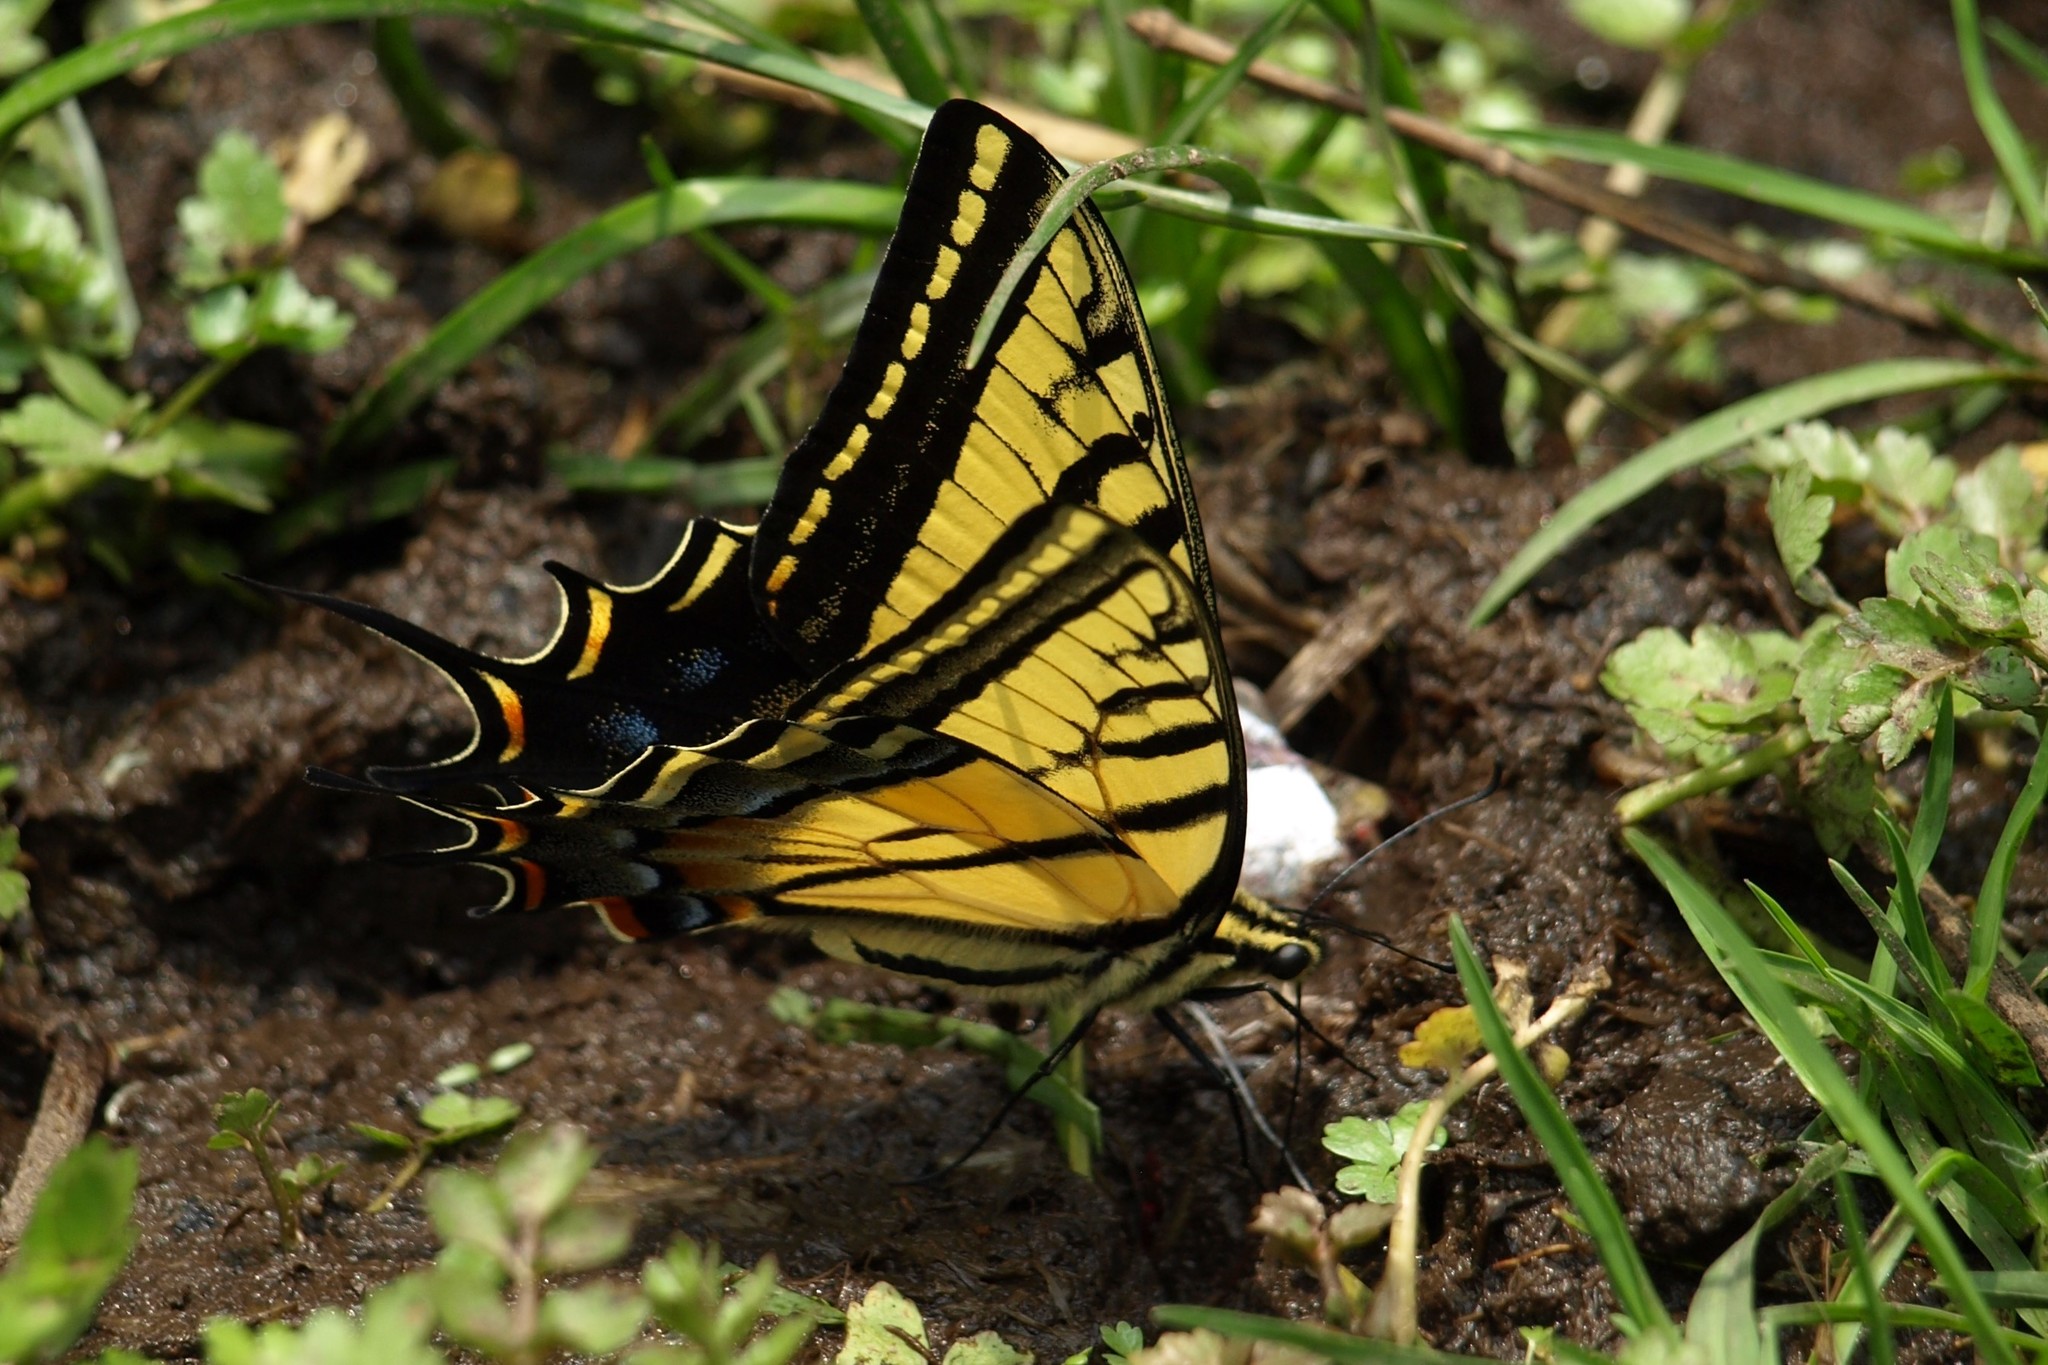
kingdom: Animalia
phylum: Arthropoda
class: Insecta
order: Lepidoptera
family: Papilionidae
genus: Papilio
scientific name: Papilio multicaudata
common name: Two-tailed tiger swallowtail
